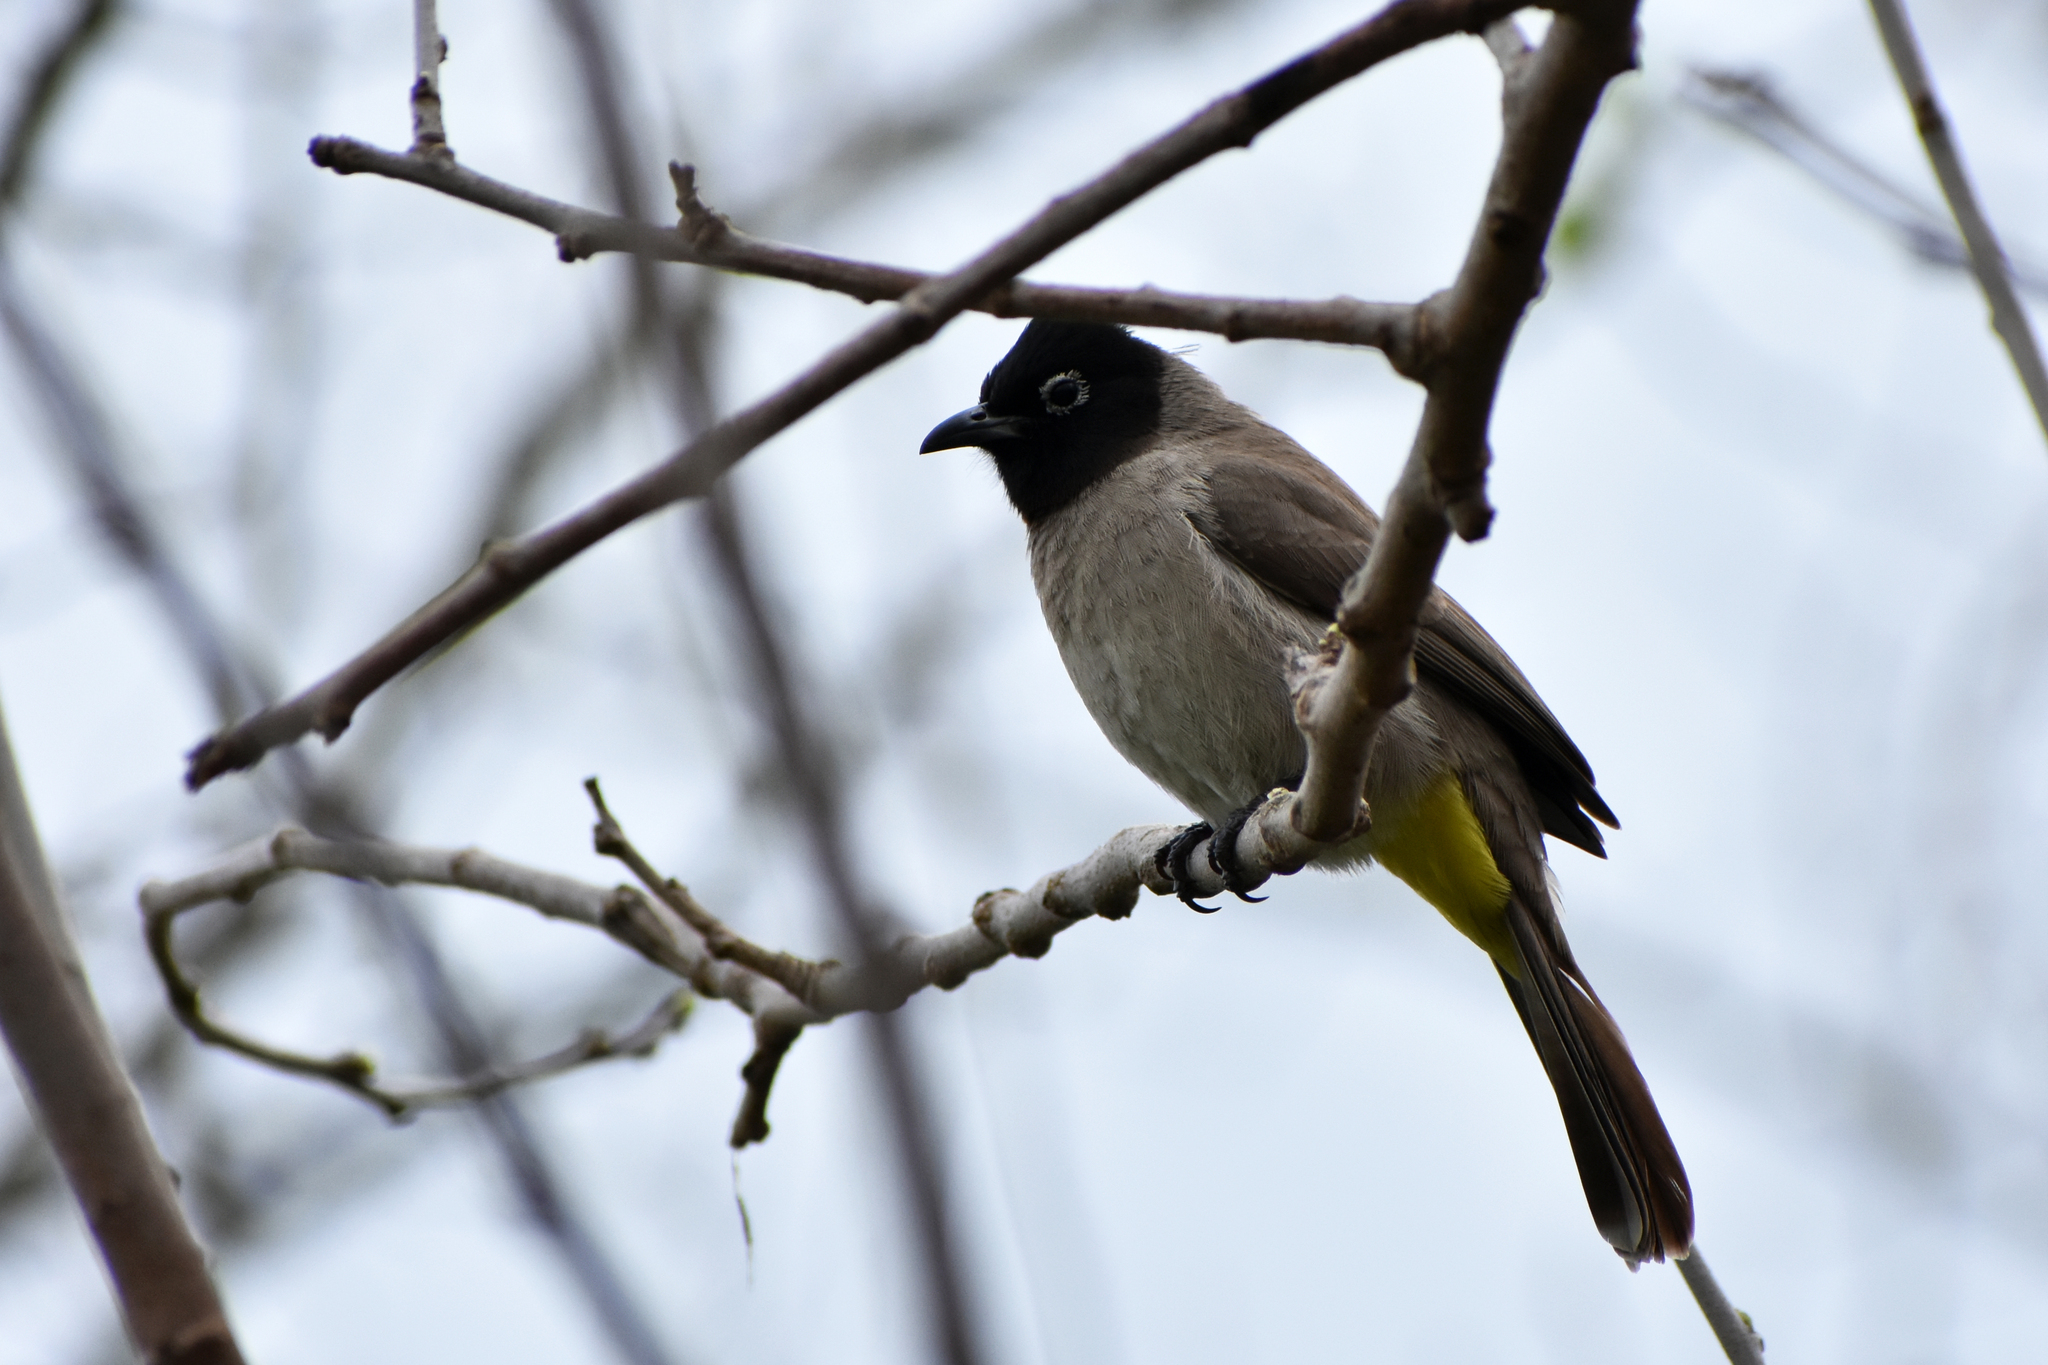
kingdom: Animalia
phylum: Chordata
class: Aves
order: Passeriformes
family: Pycnonotidae
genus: Pycnonotus
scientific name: Pycnonotus xanthopygos
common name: White-spectacled bulbul
